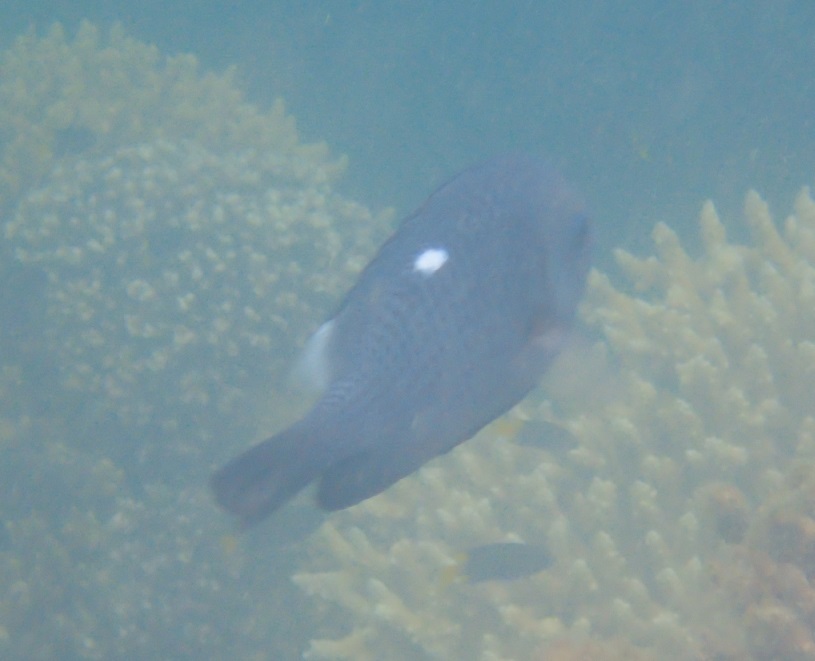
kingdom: Animalia
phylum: Chordata
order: Perciformes
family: Pomacentridae
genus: Dascyllus
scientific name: Dascyllus trimaculatus
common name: Threespot dascyllus
